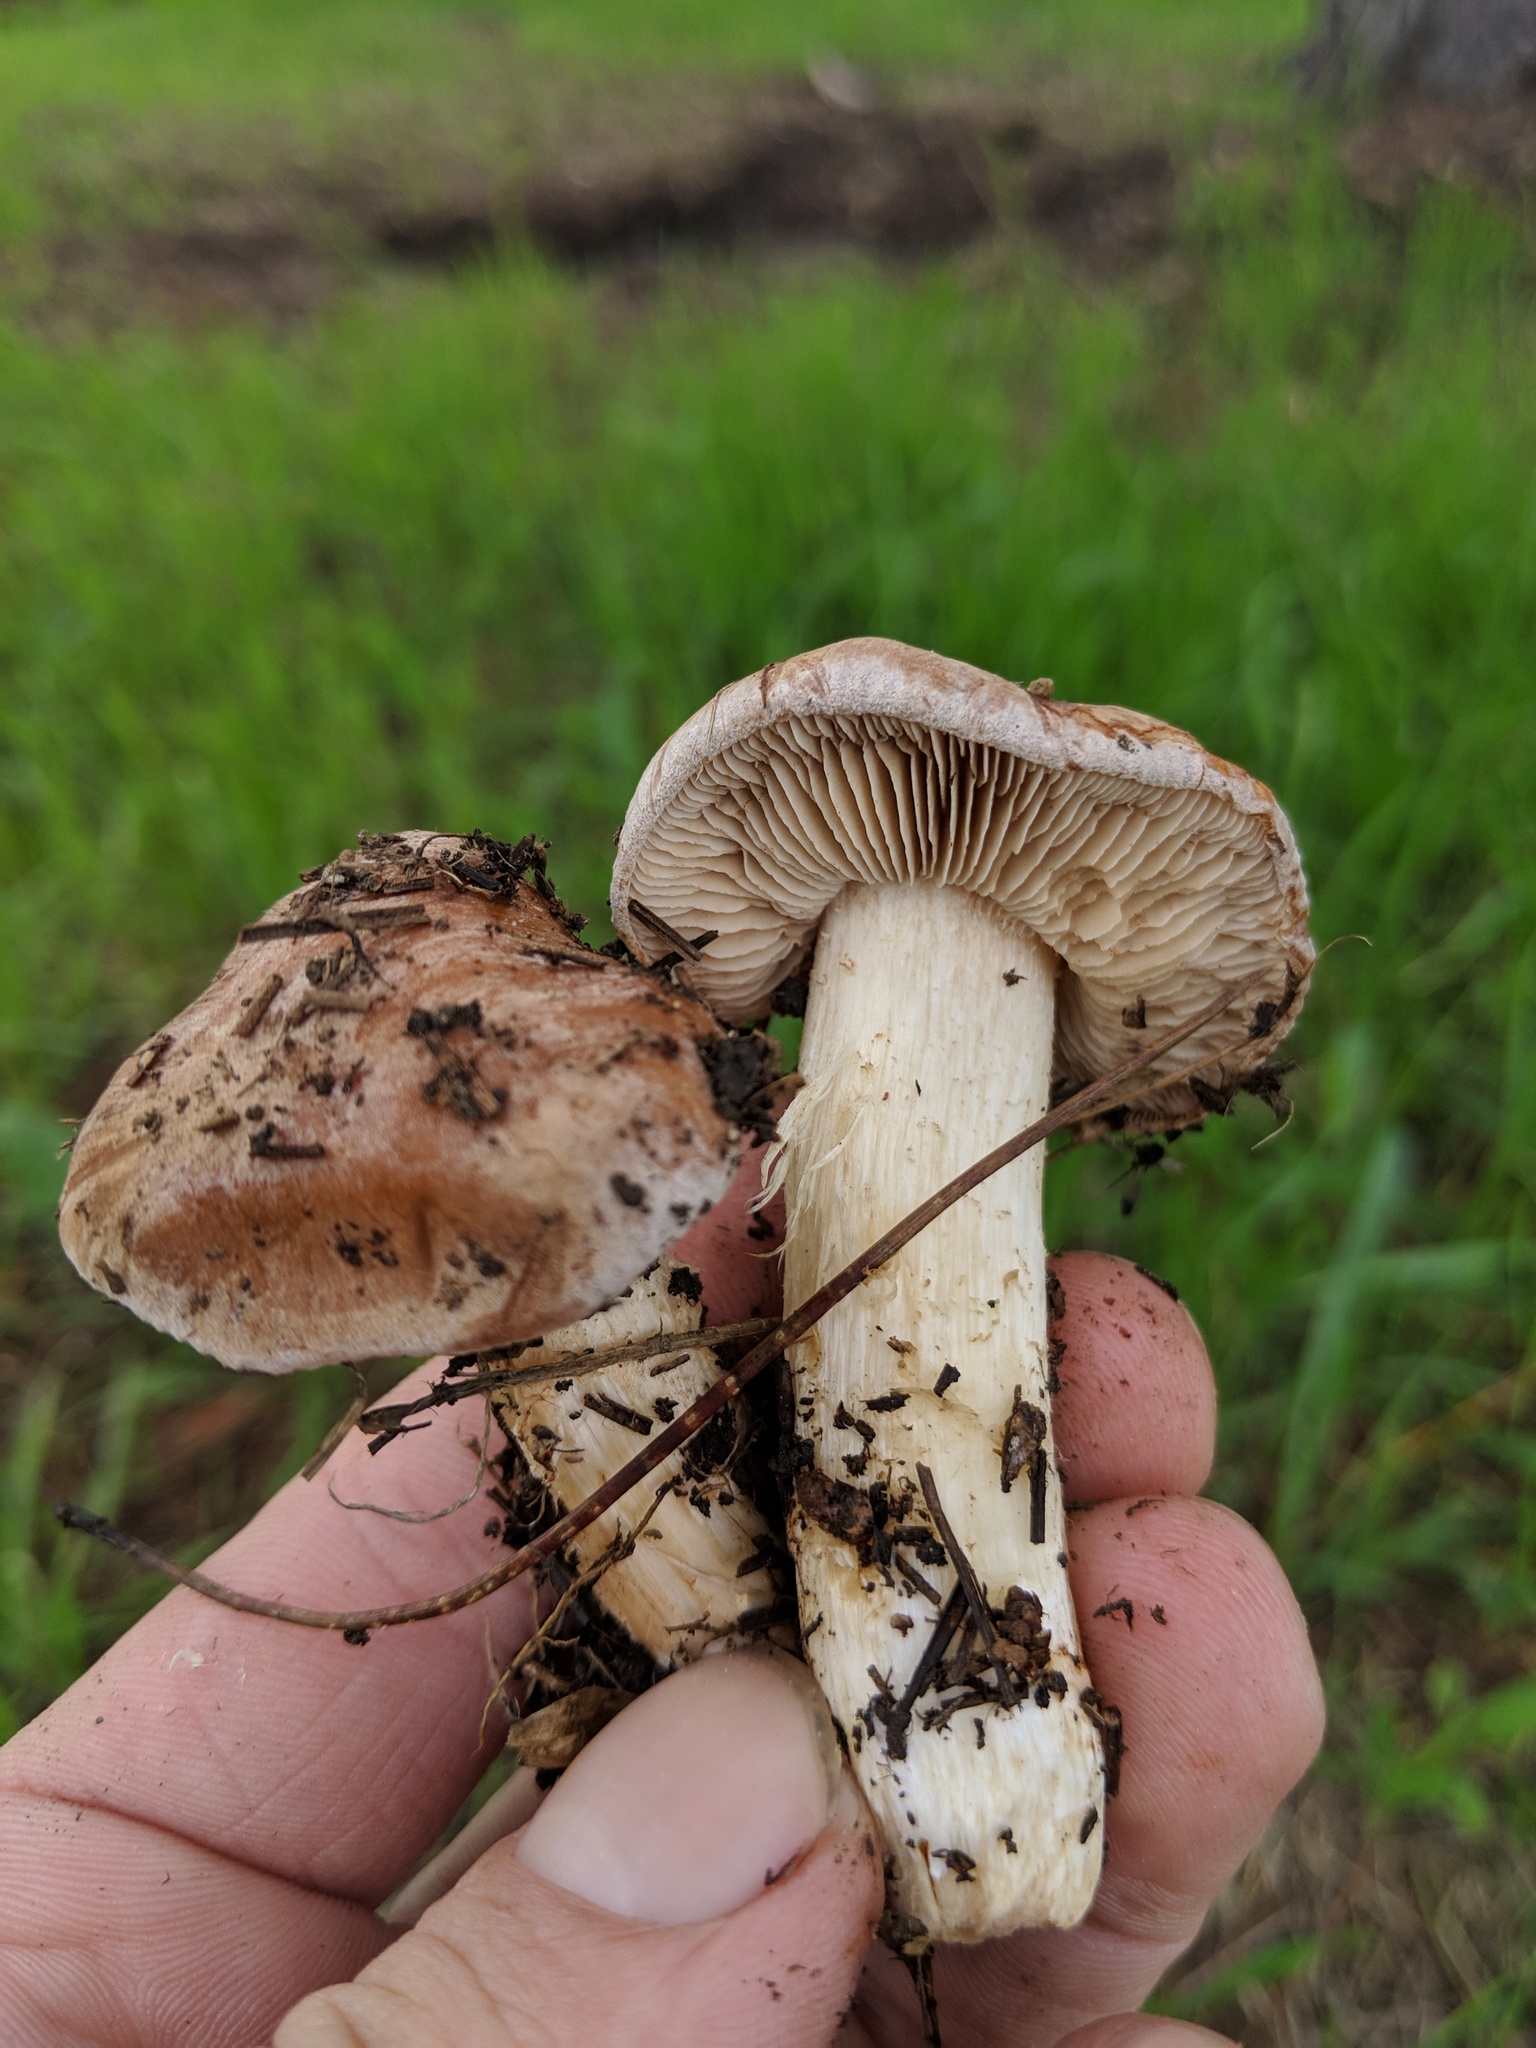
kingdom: Fungi
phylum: Basidiomycota
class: Agaricomycetes
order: Agaricales
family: Hymenogastraceae
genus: Hebeloma
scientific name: Hebeloma theobrominum
